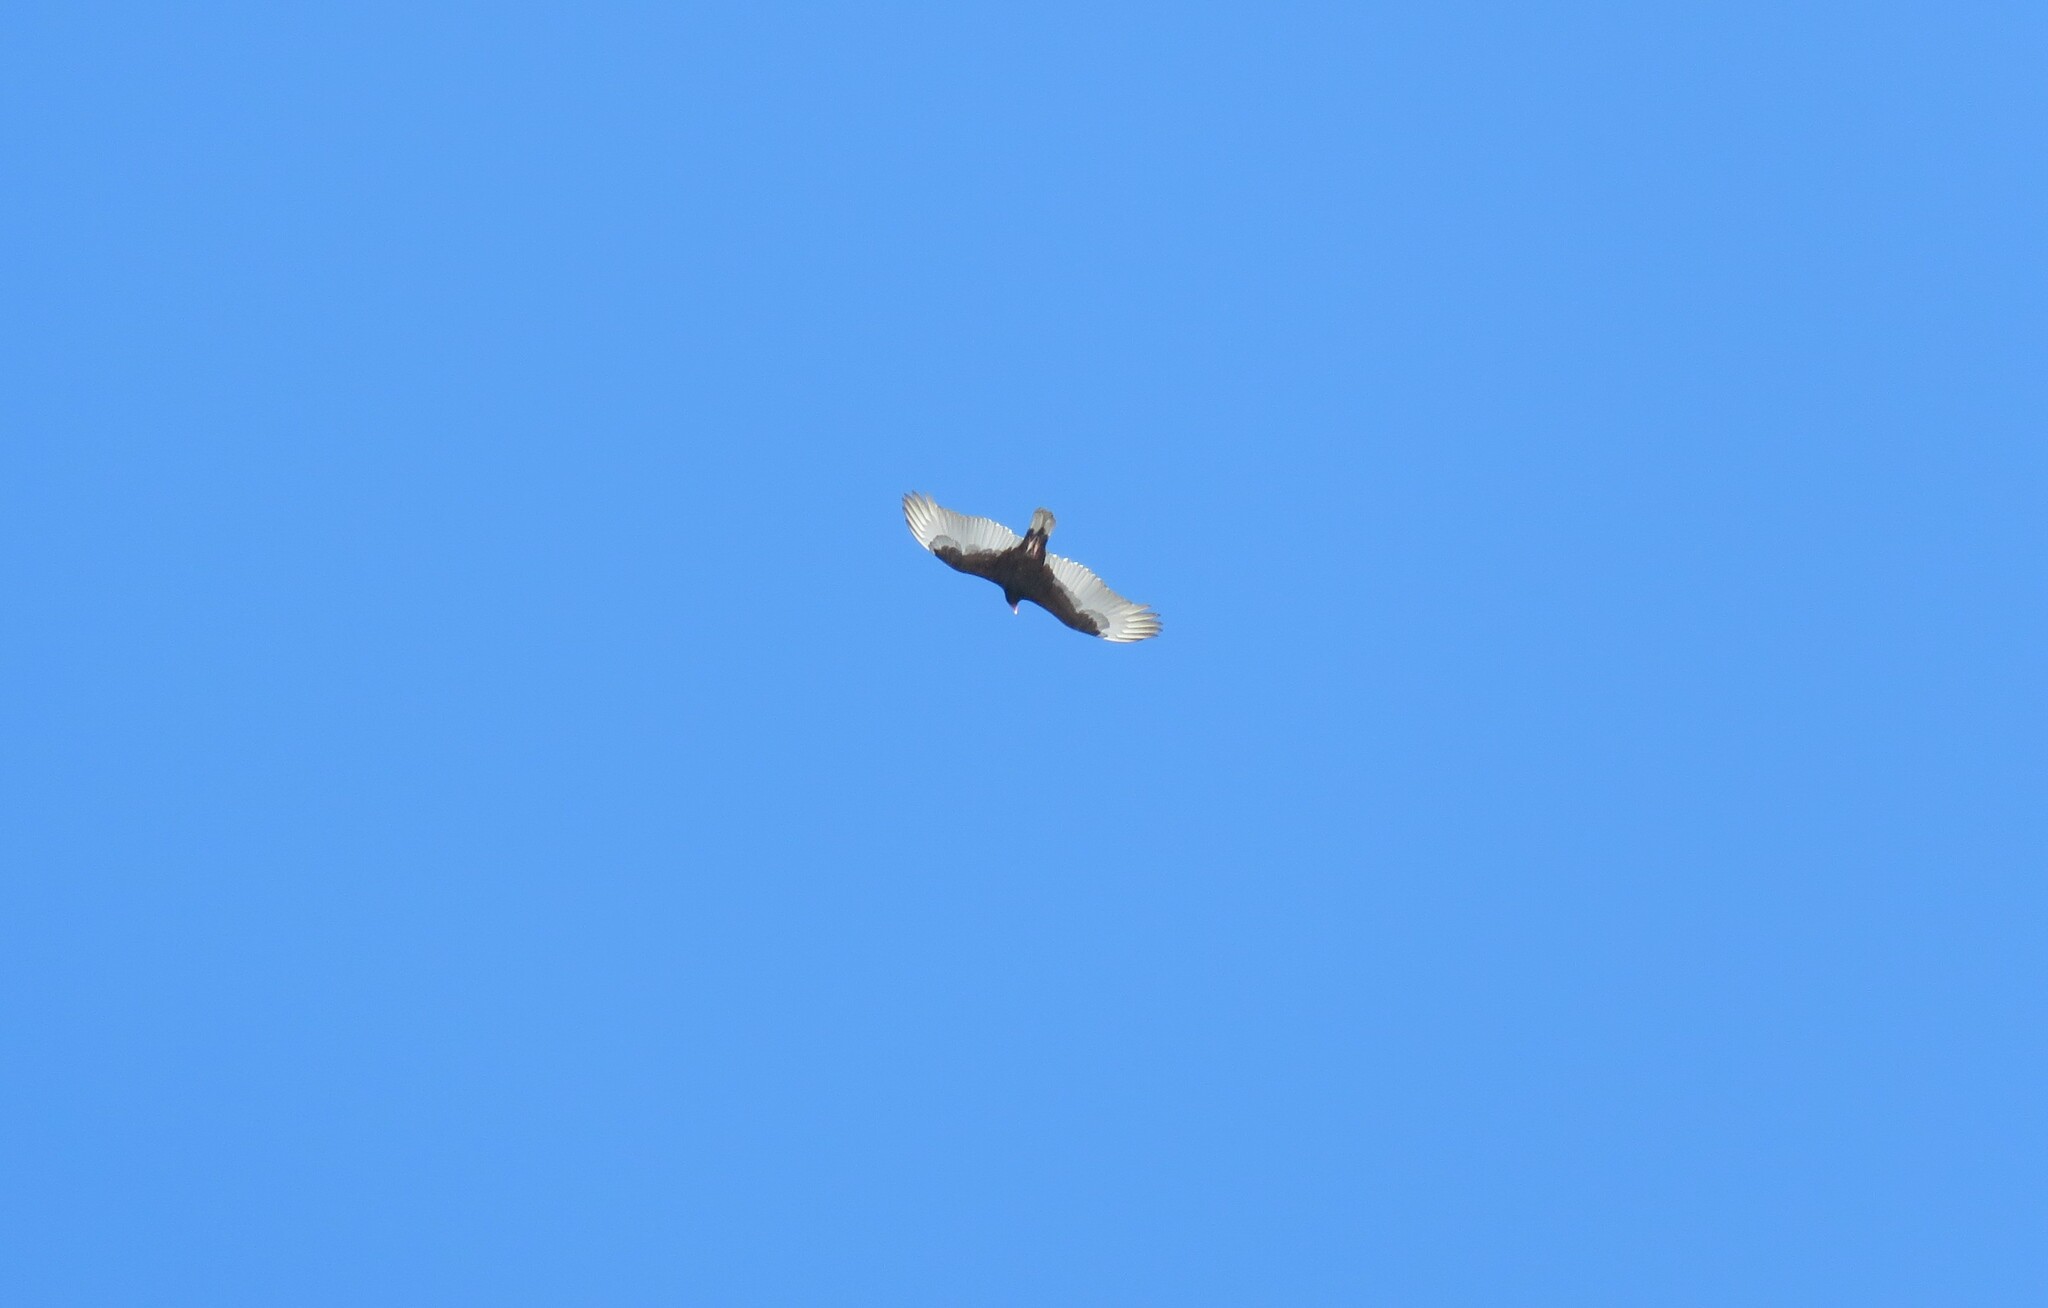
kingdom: Animalia
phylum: Chordata
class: Aves
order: Accipitriformes
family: Cathartidae
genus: Cathartes
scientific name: Cathartes aura
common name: Turkey vulture
